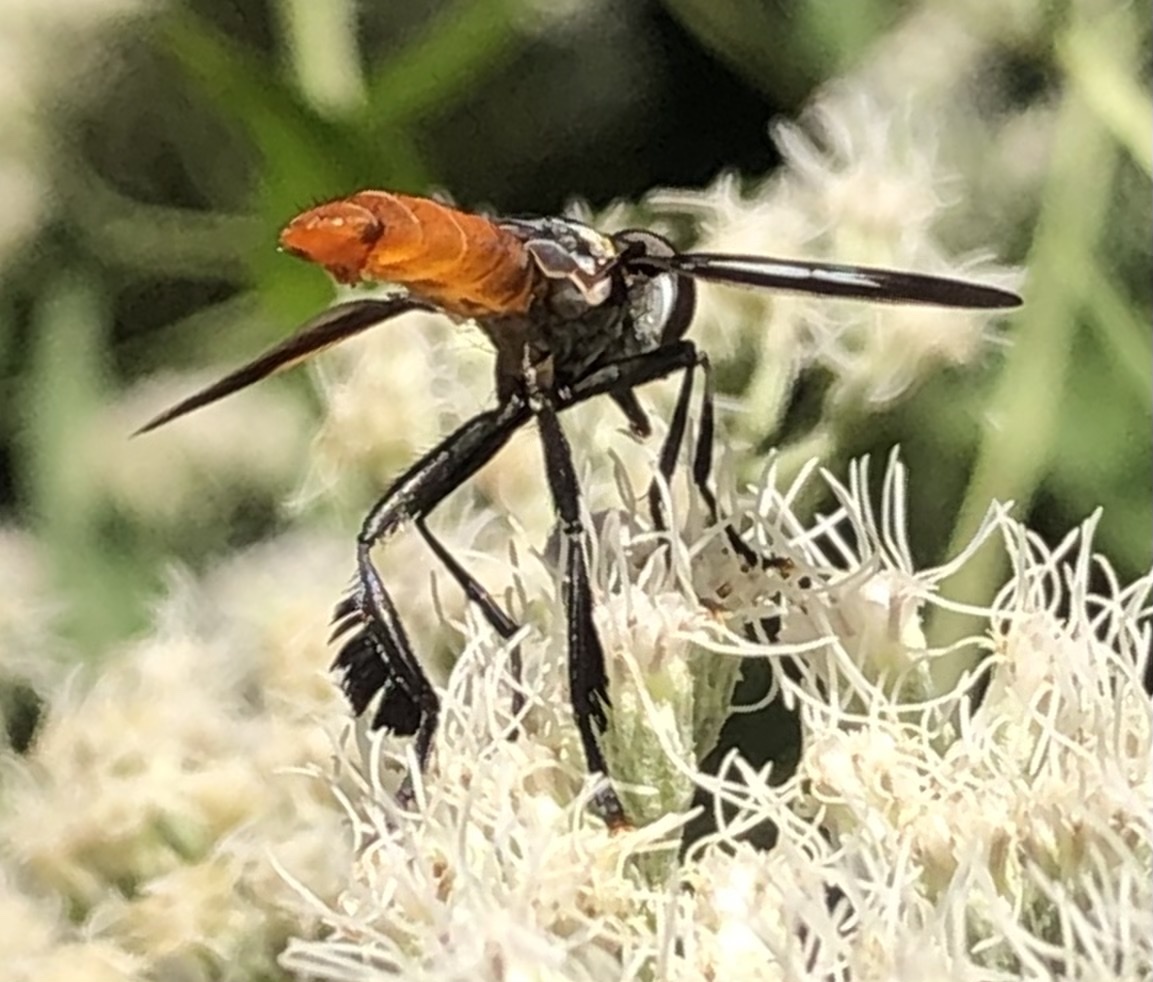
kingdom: Animalia
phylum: Arthropoda
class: Insecta
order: Diptera
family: Tachinidae
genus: Trichopoda
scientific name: Trichopoda pennipes
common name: Tachinid fly
